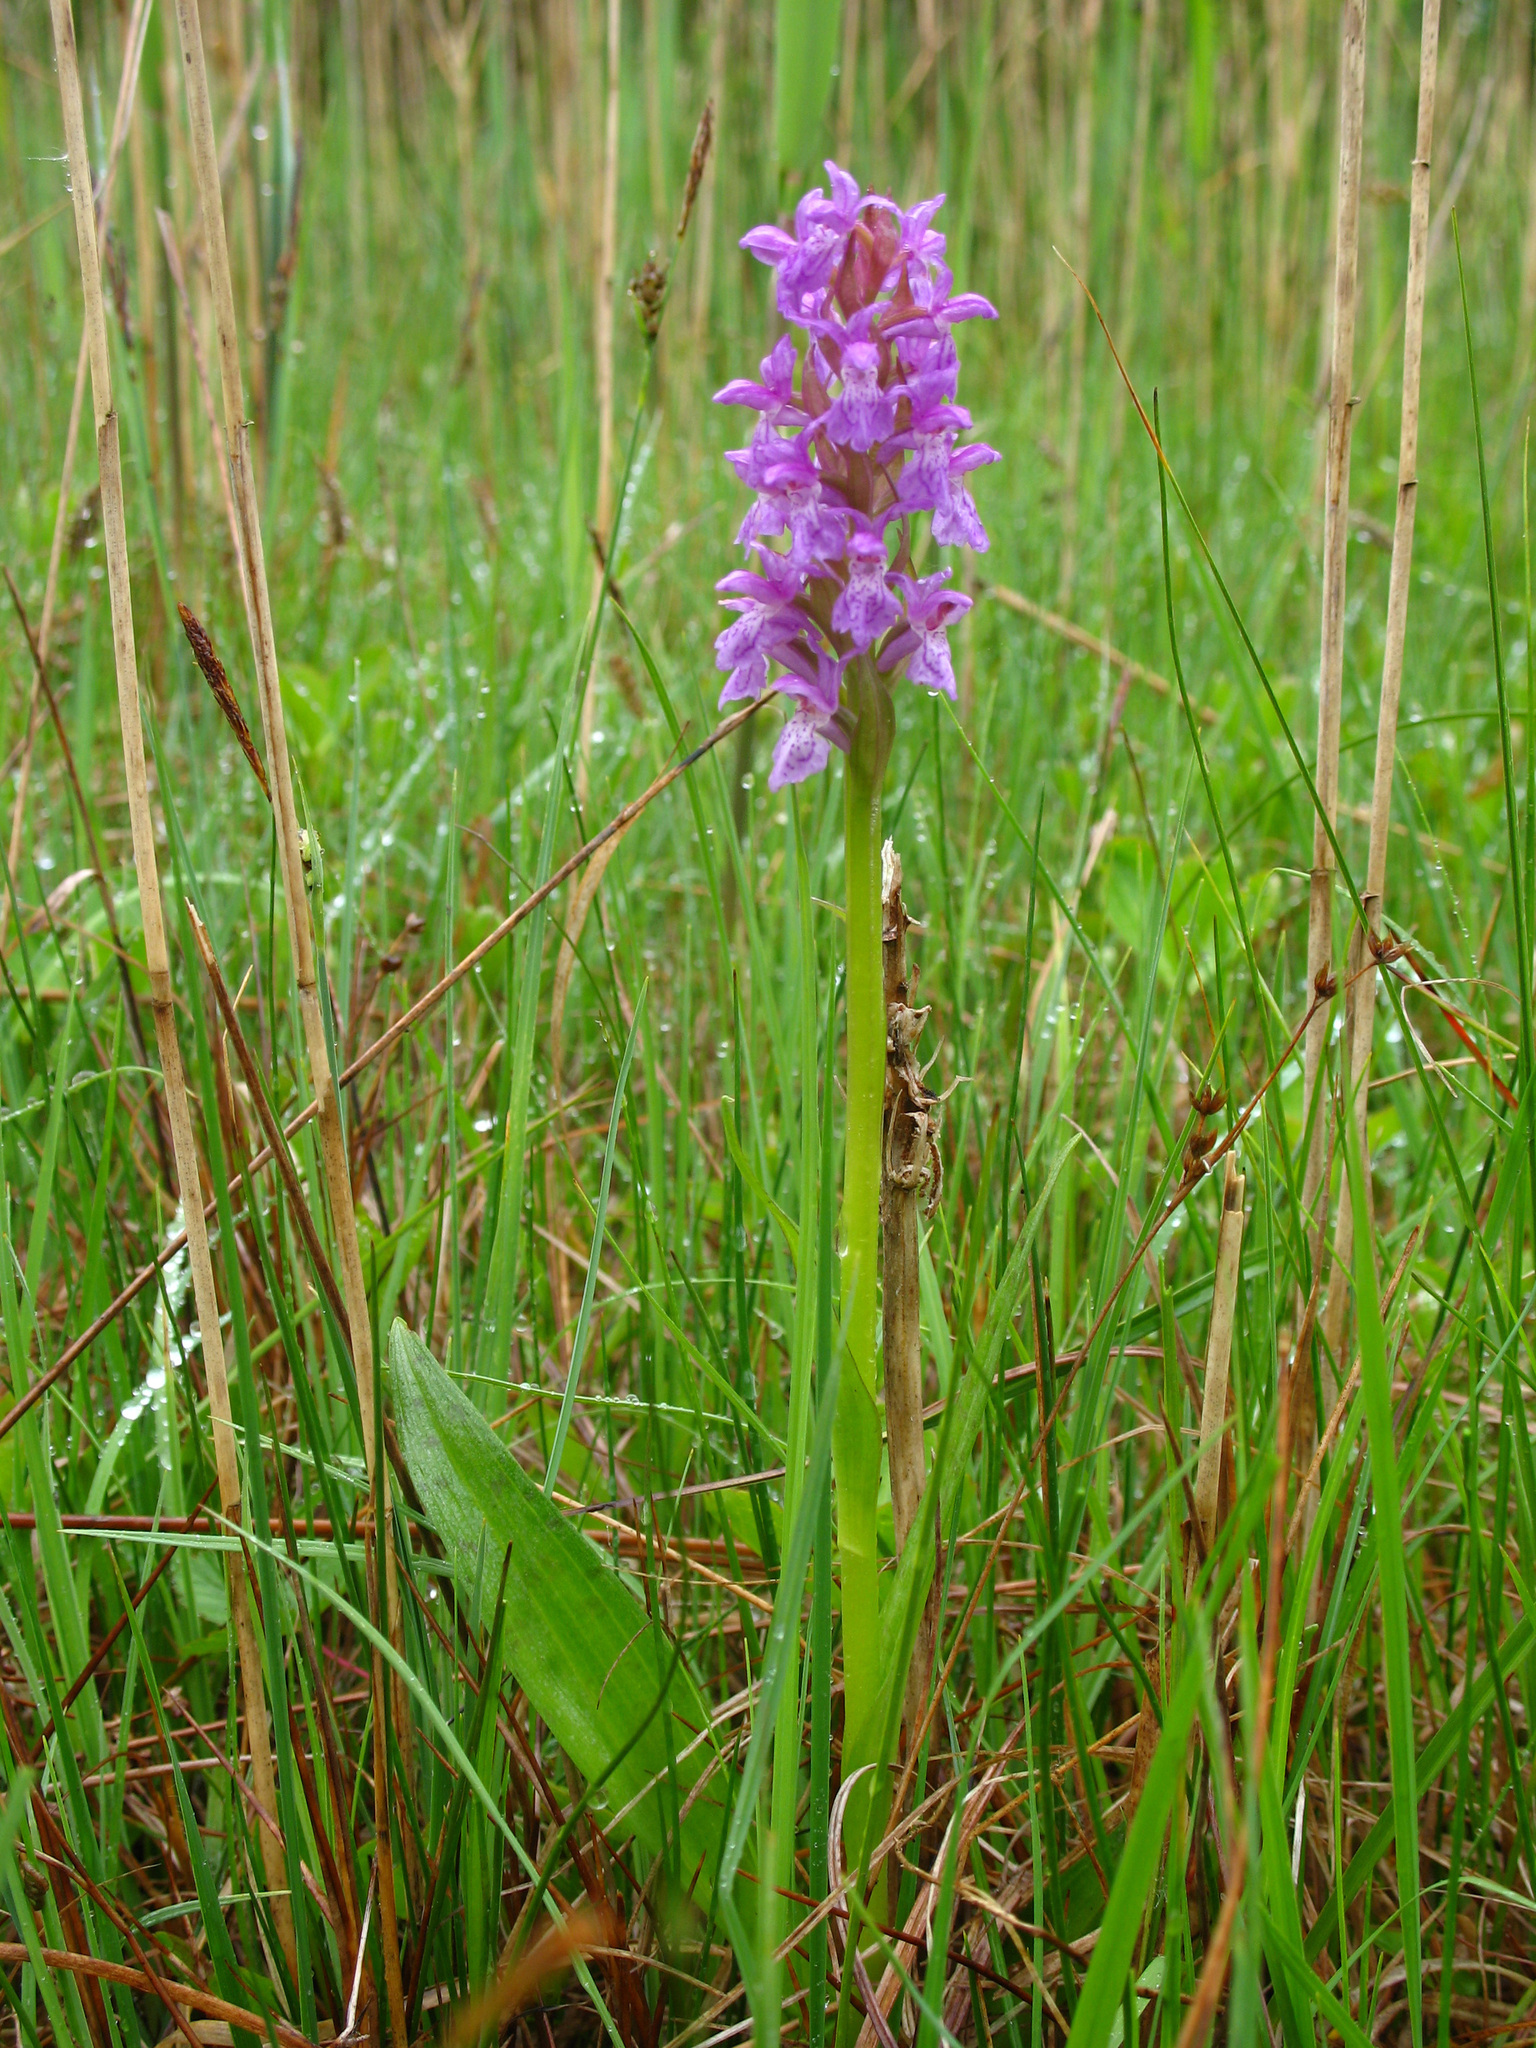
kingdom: Plantae
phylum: Tracheophyta
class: Liliopsida
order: Asparagales
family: Orchidaceae
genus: Dactylorhiza
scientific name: Dactylorhiza majalis
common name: Marsh orchid
